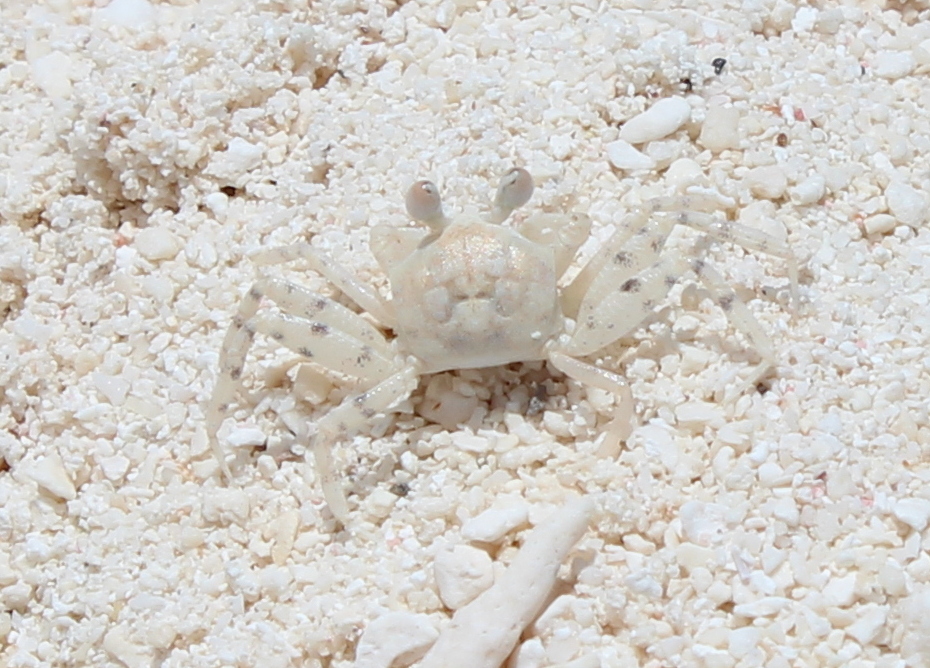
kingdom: Animalia
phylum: Arthropoda
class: Malacostraca
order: Decapoda
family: Ocypodidae
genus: Ocypode
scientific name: Ocypode
